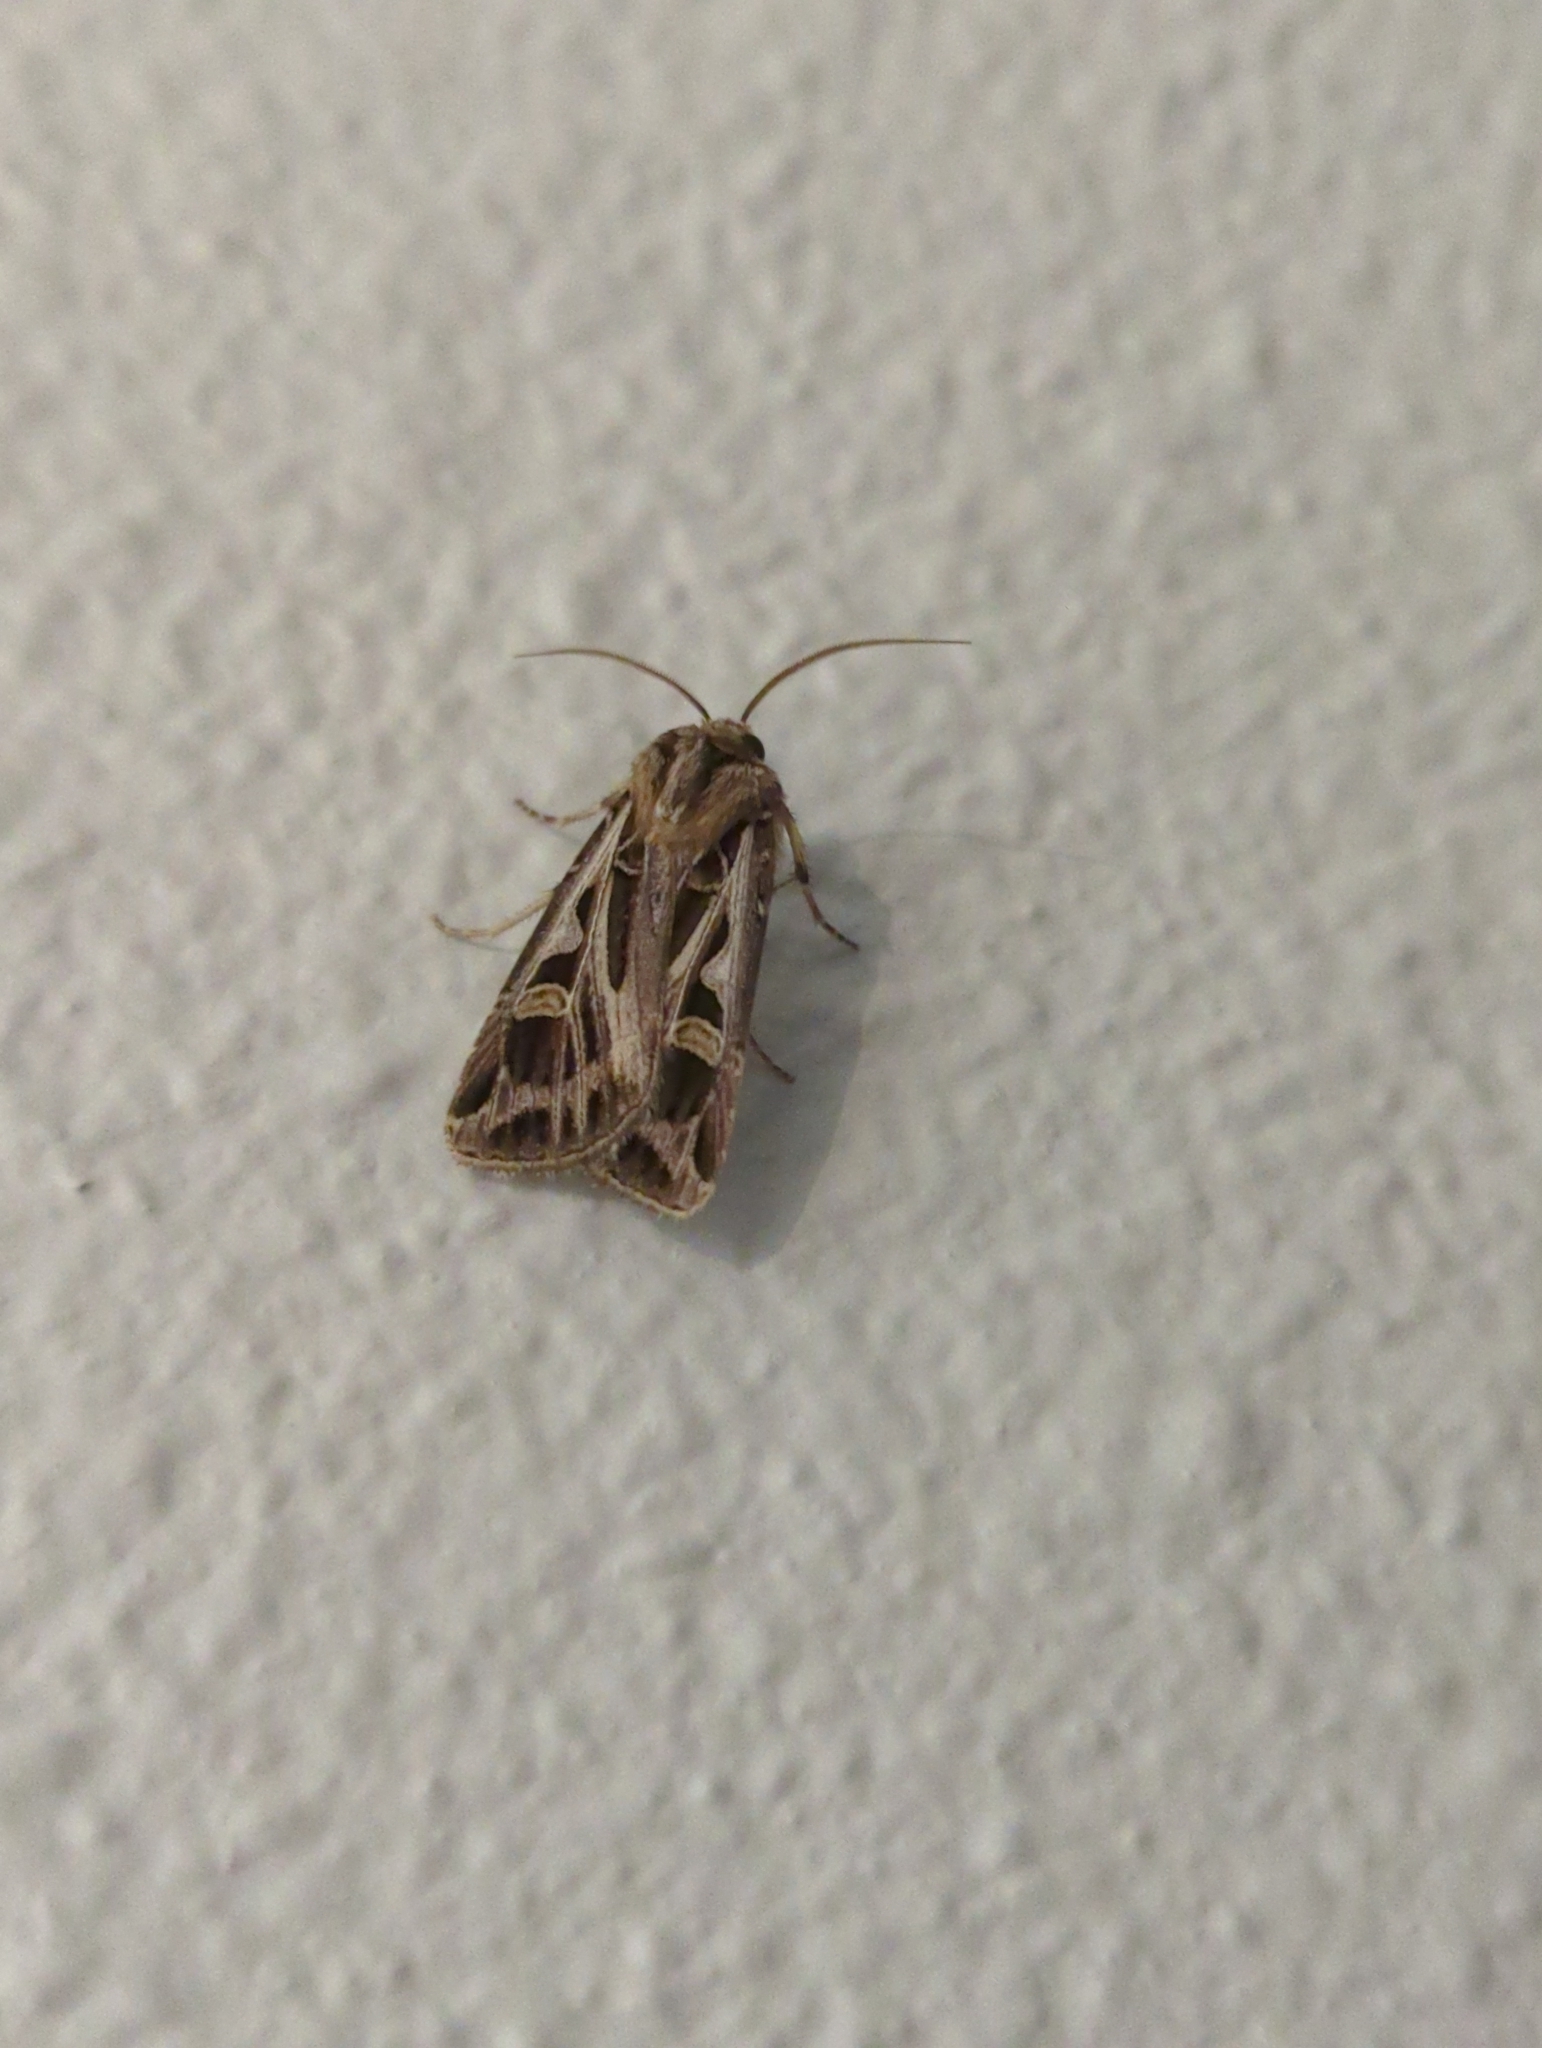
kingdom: Animalia
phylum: Arthropoda
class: Insecta
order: Lepidoptera
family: Noctuidae
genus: Feltia
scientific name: Feltia jaculifera
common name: Dingy cutworm moth
